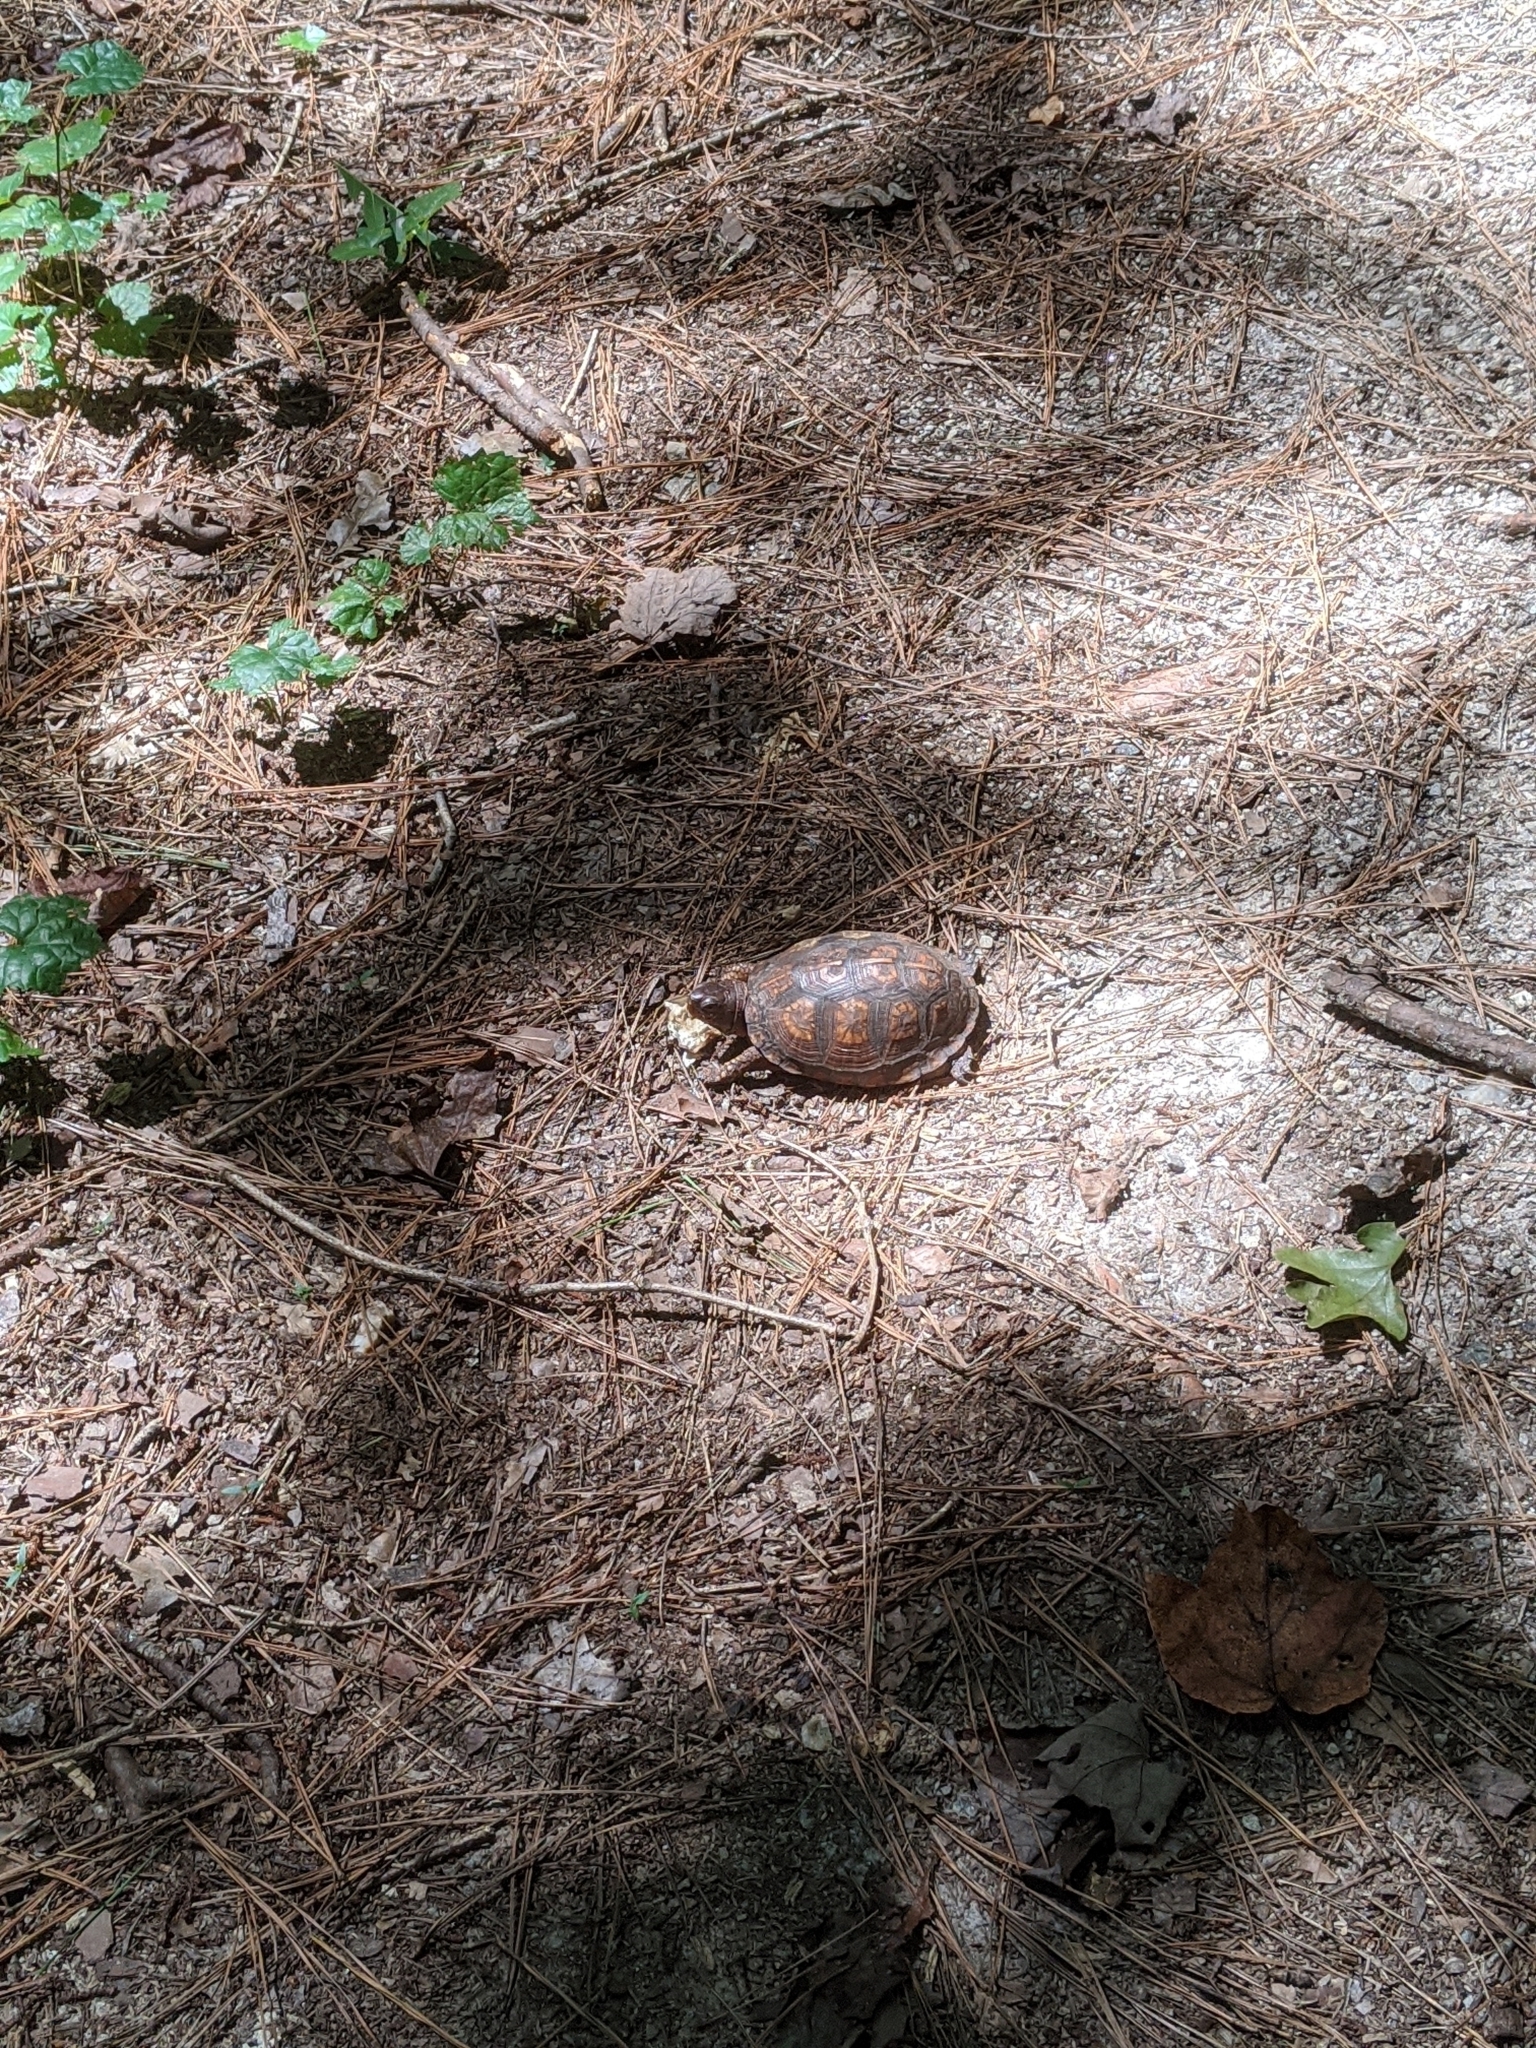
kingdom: Animalia
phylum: Chordata
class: Testudines
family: Emydidae
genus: Terrapene
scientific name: Terrapene carolina
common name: Common box turtle
